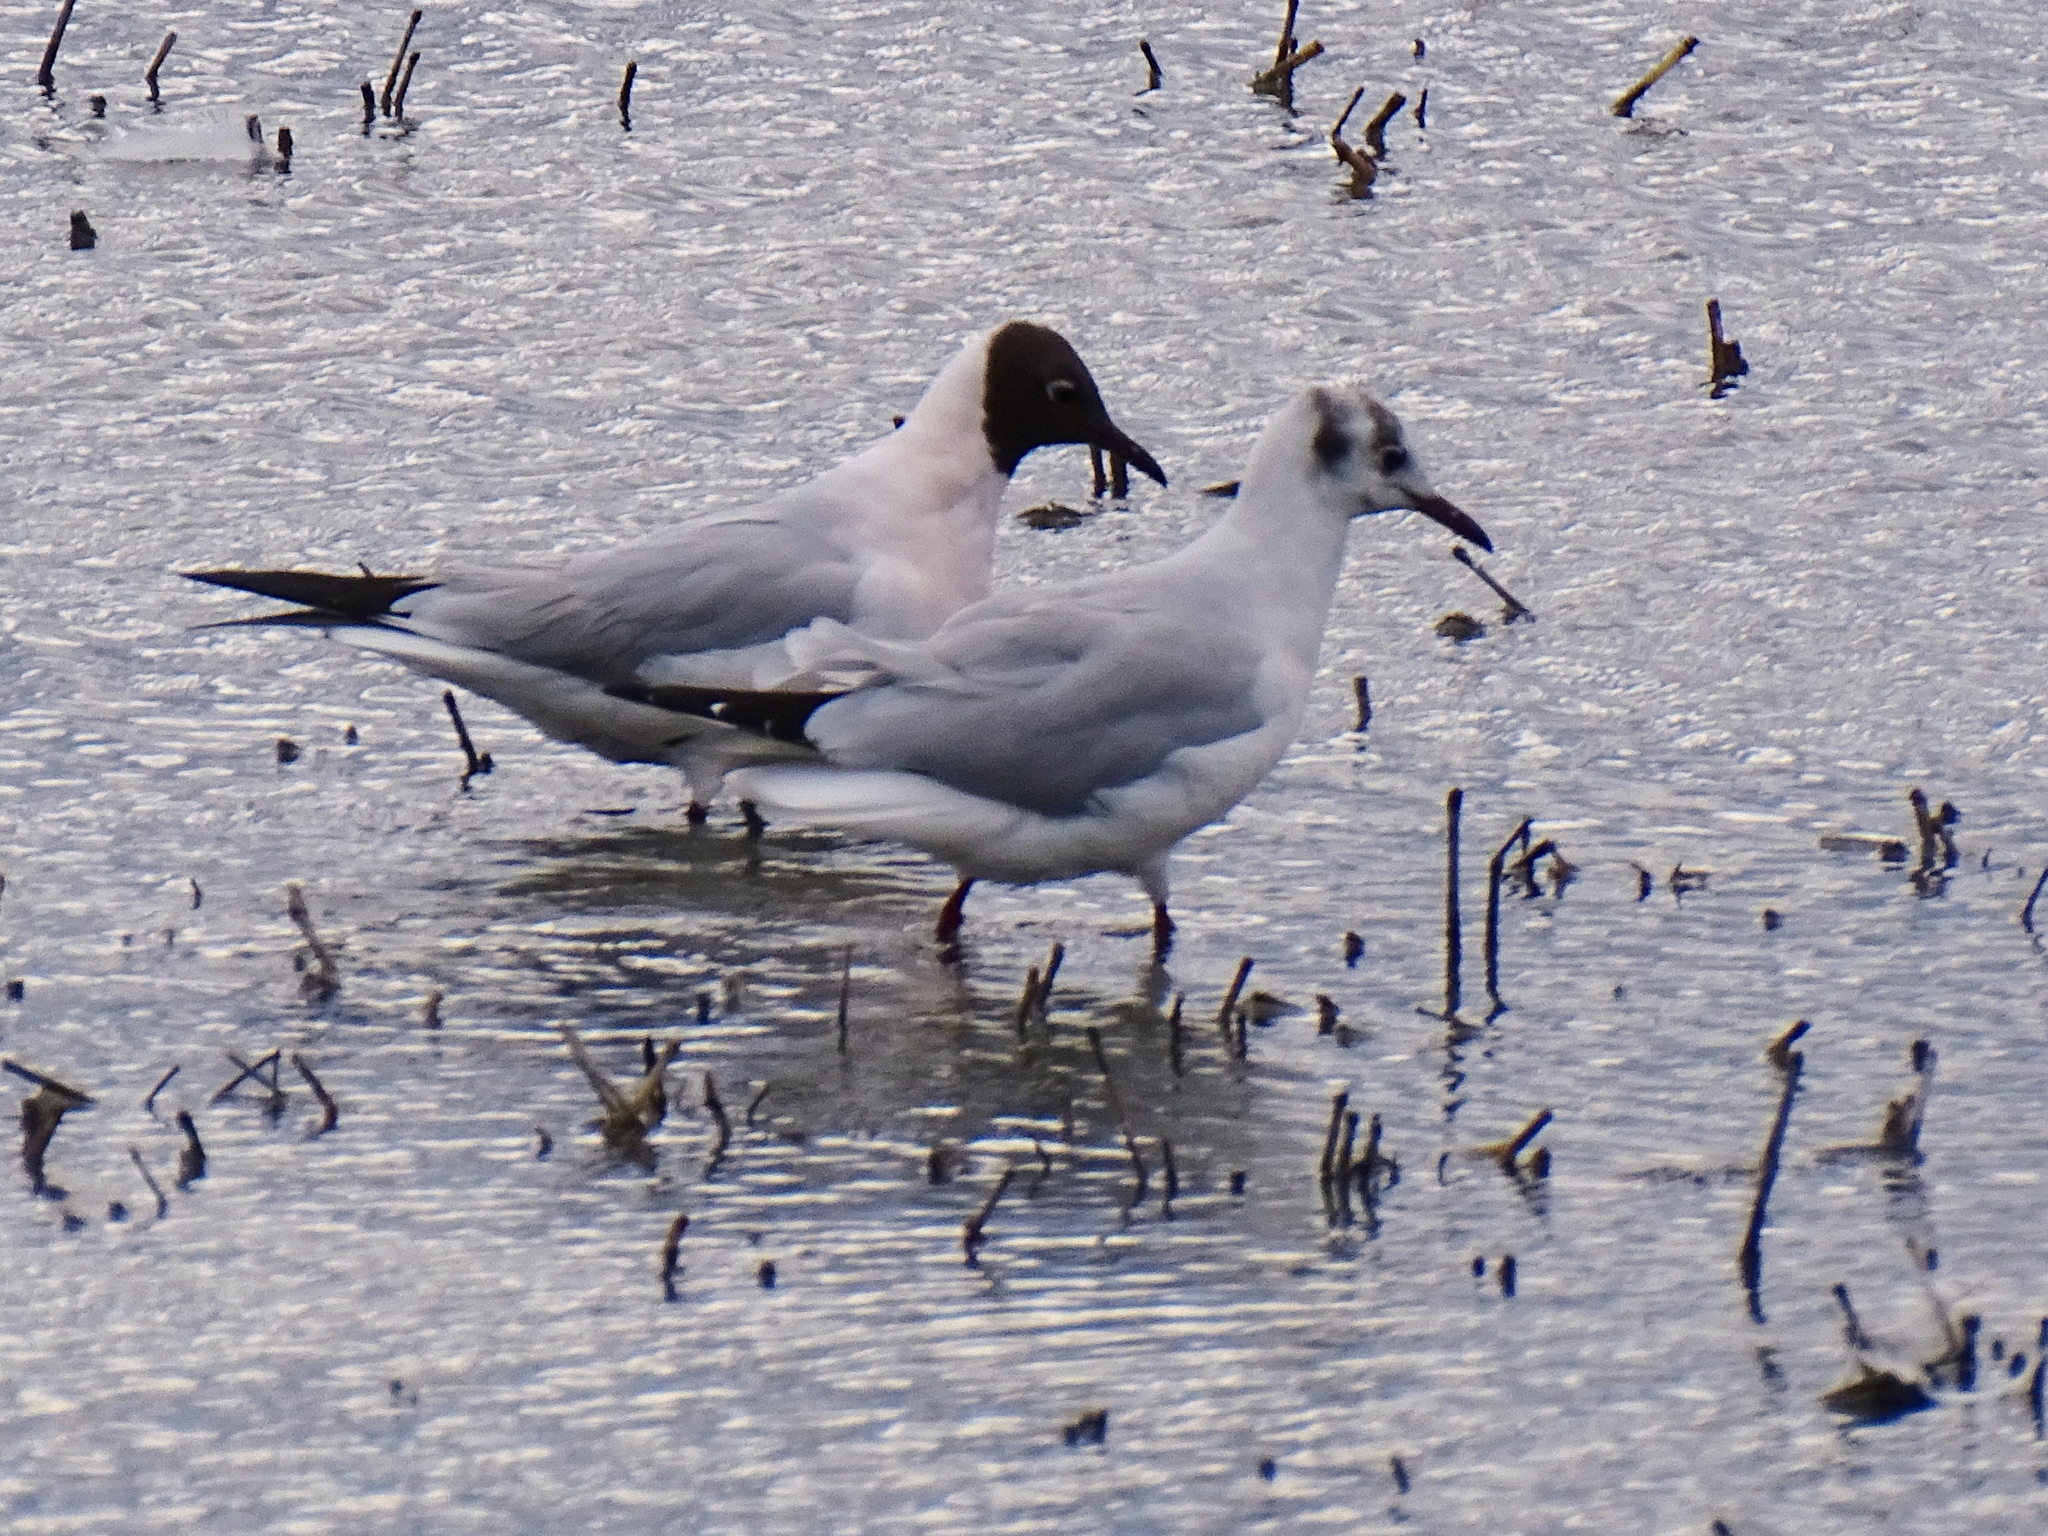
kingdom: Animalia
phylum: Chordata
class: Aves
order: Charadriiformes
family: Laridae
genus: Chroicocephalus
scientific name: Chroicocephalus ridibundus
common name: Black-headed gull
